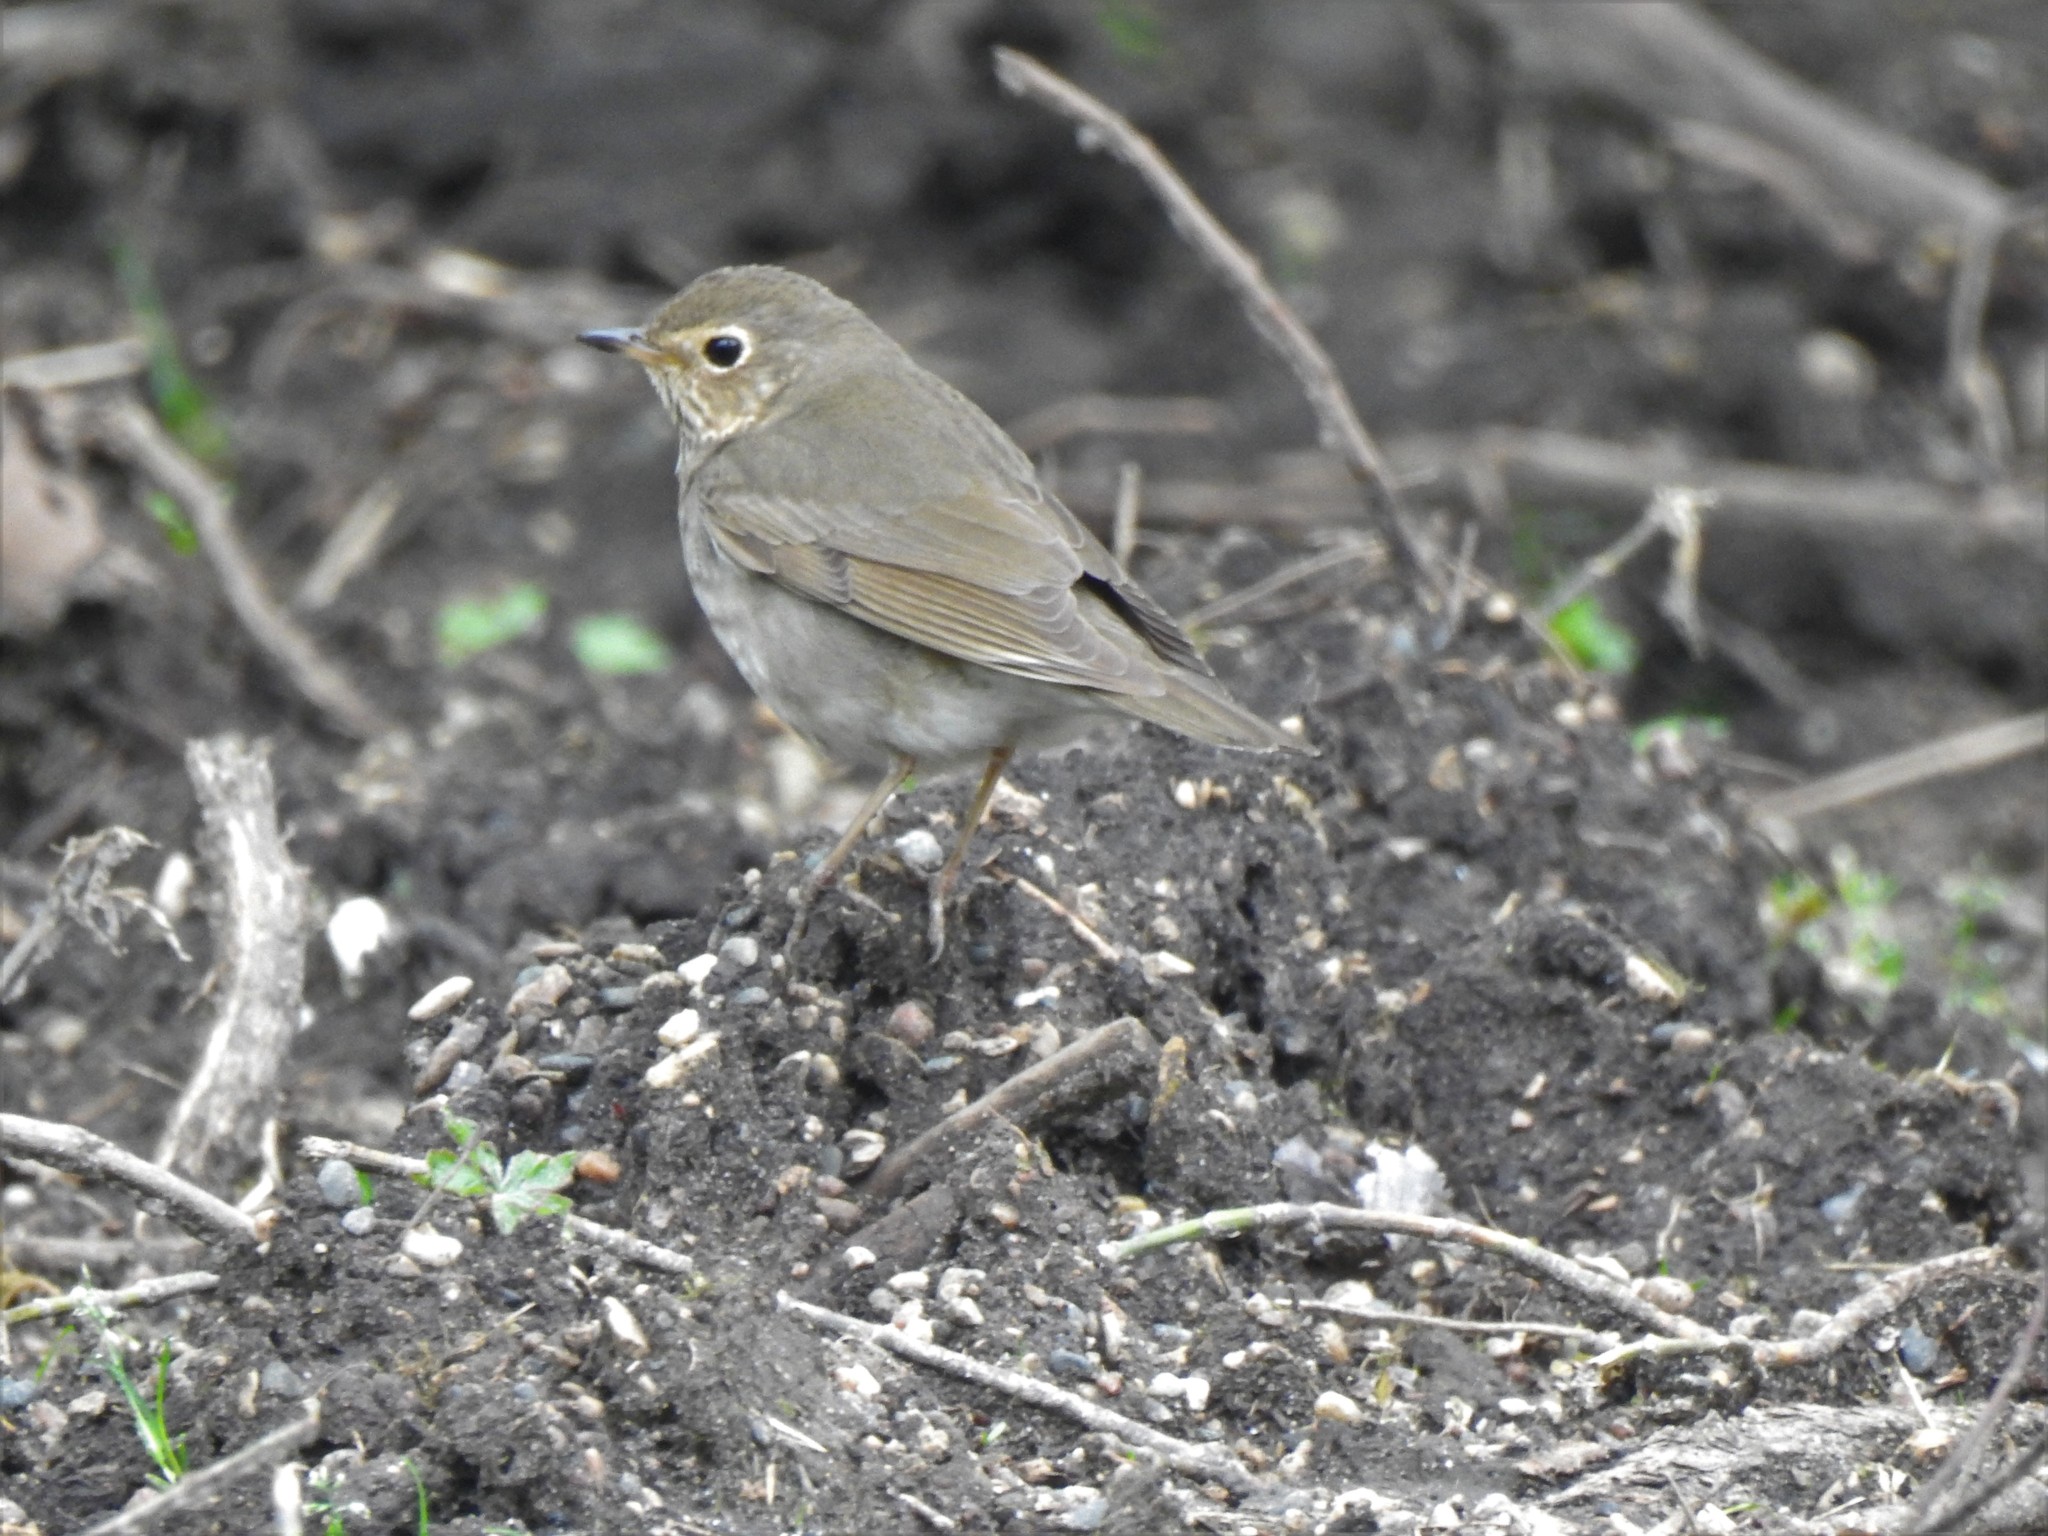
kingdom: Animalia
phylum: Chordata
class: Aves
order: Passeriformes
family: Turdidae
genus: Catharus
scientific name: Catharus ustulatus
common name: Swainson's thrush
